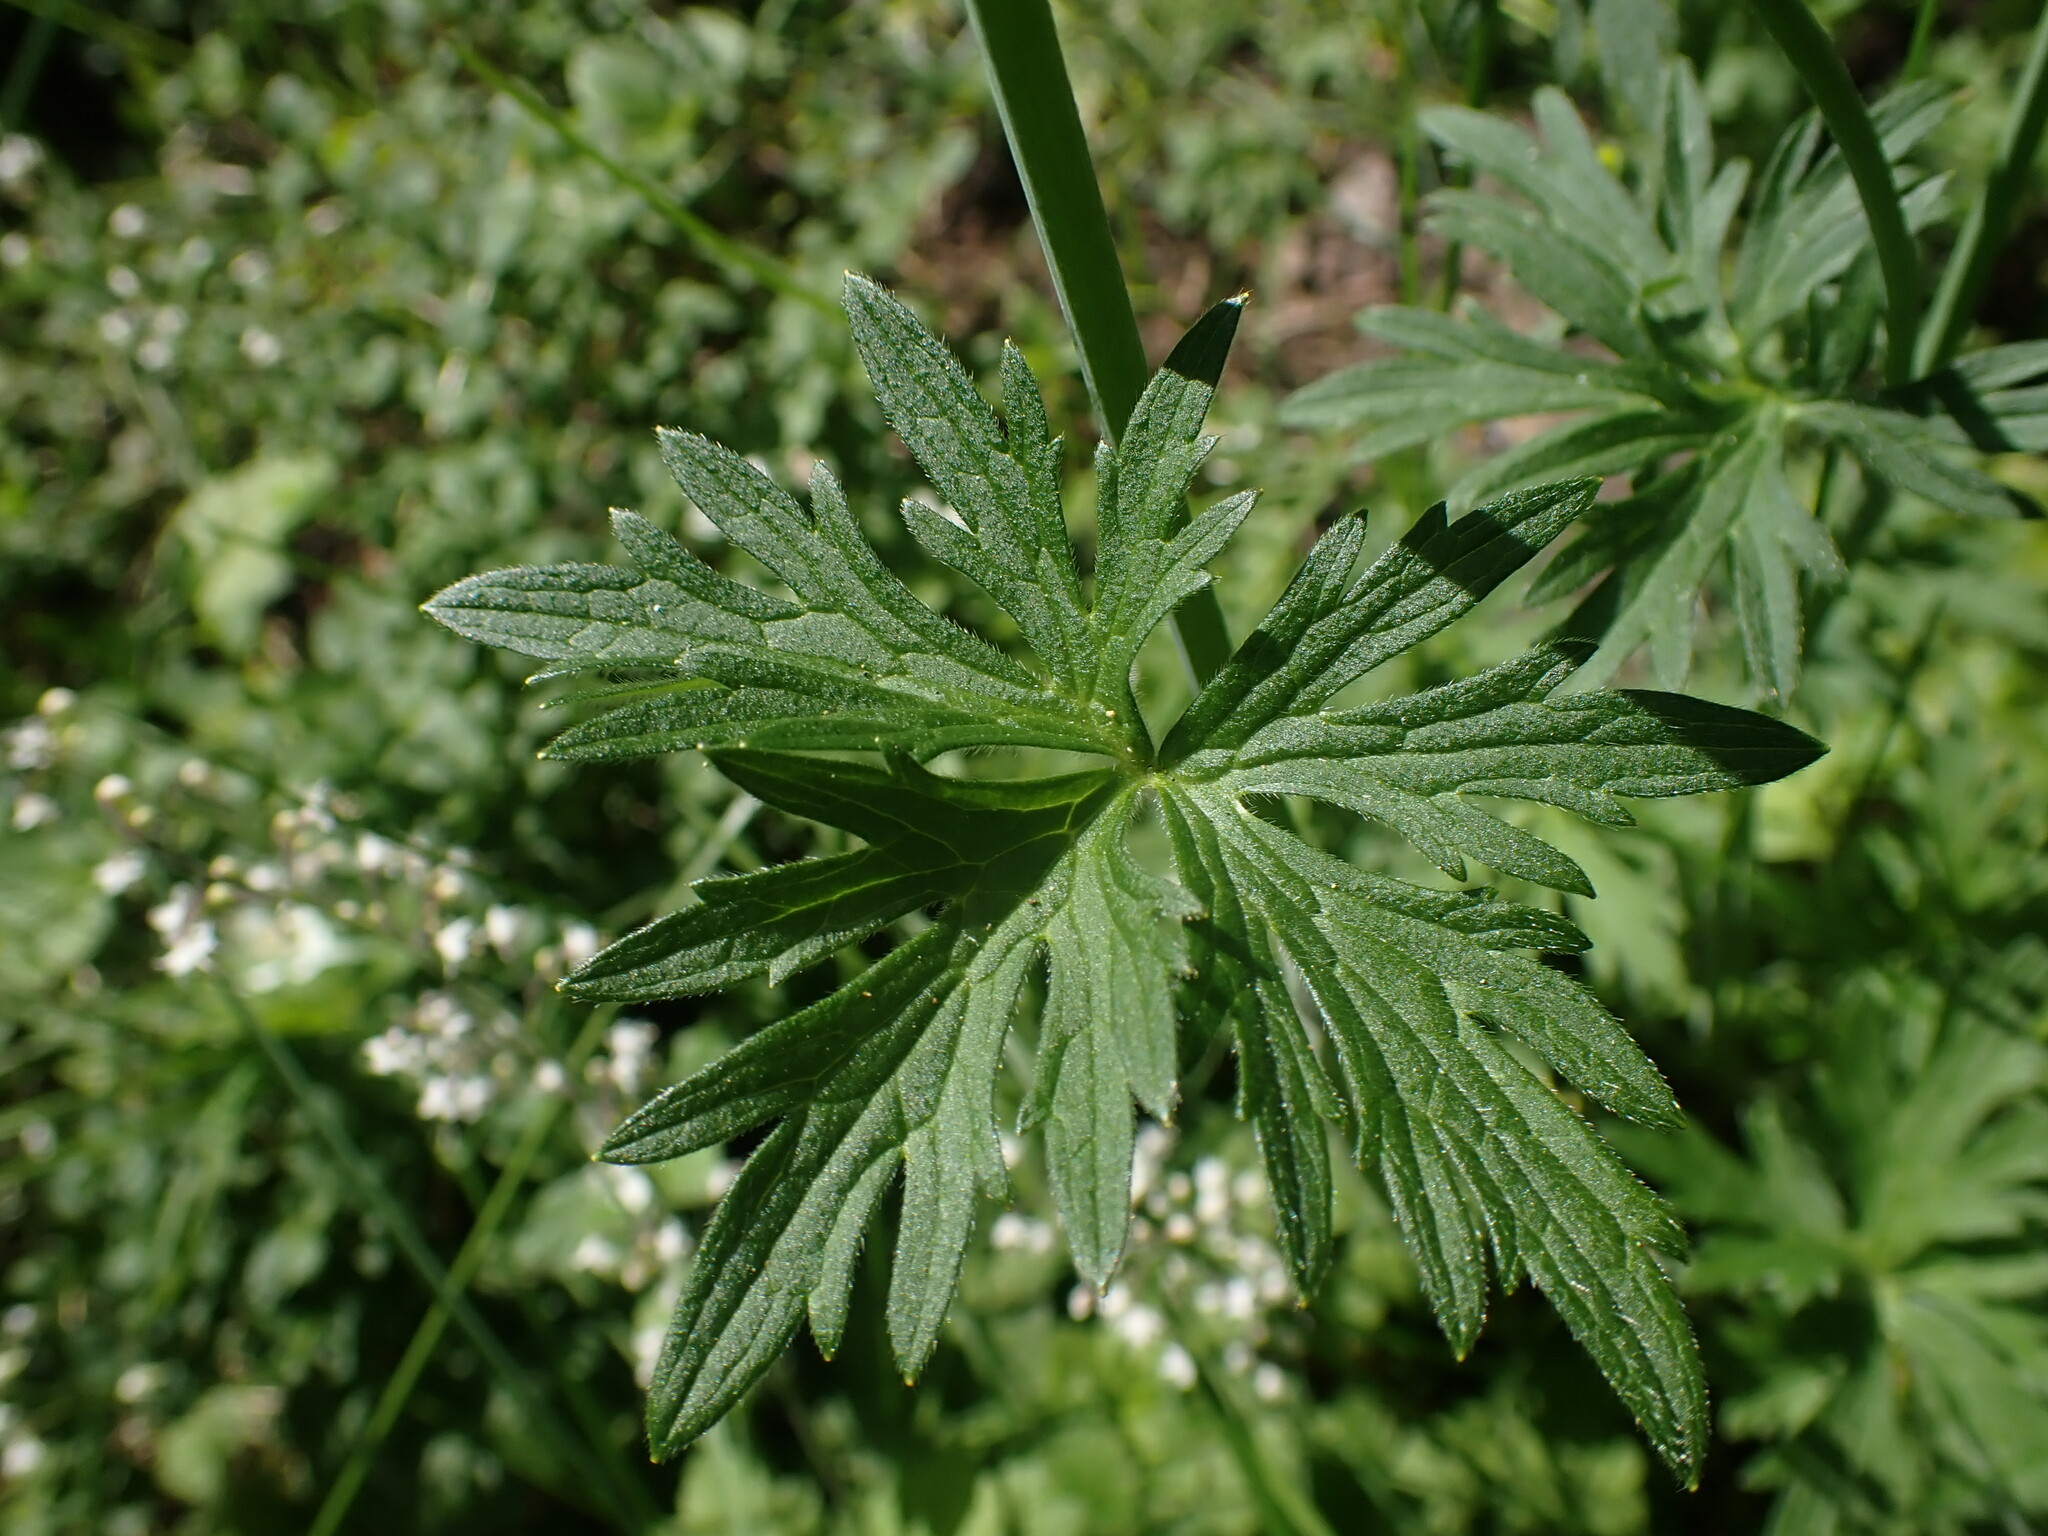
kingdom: Plantae
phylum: Tracheophyta
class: Magnoliopsida
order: Ranunculales
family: Ranunculaceae
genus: Ranunculus
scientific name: Ranunculus acris
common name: Meadow buttercup
